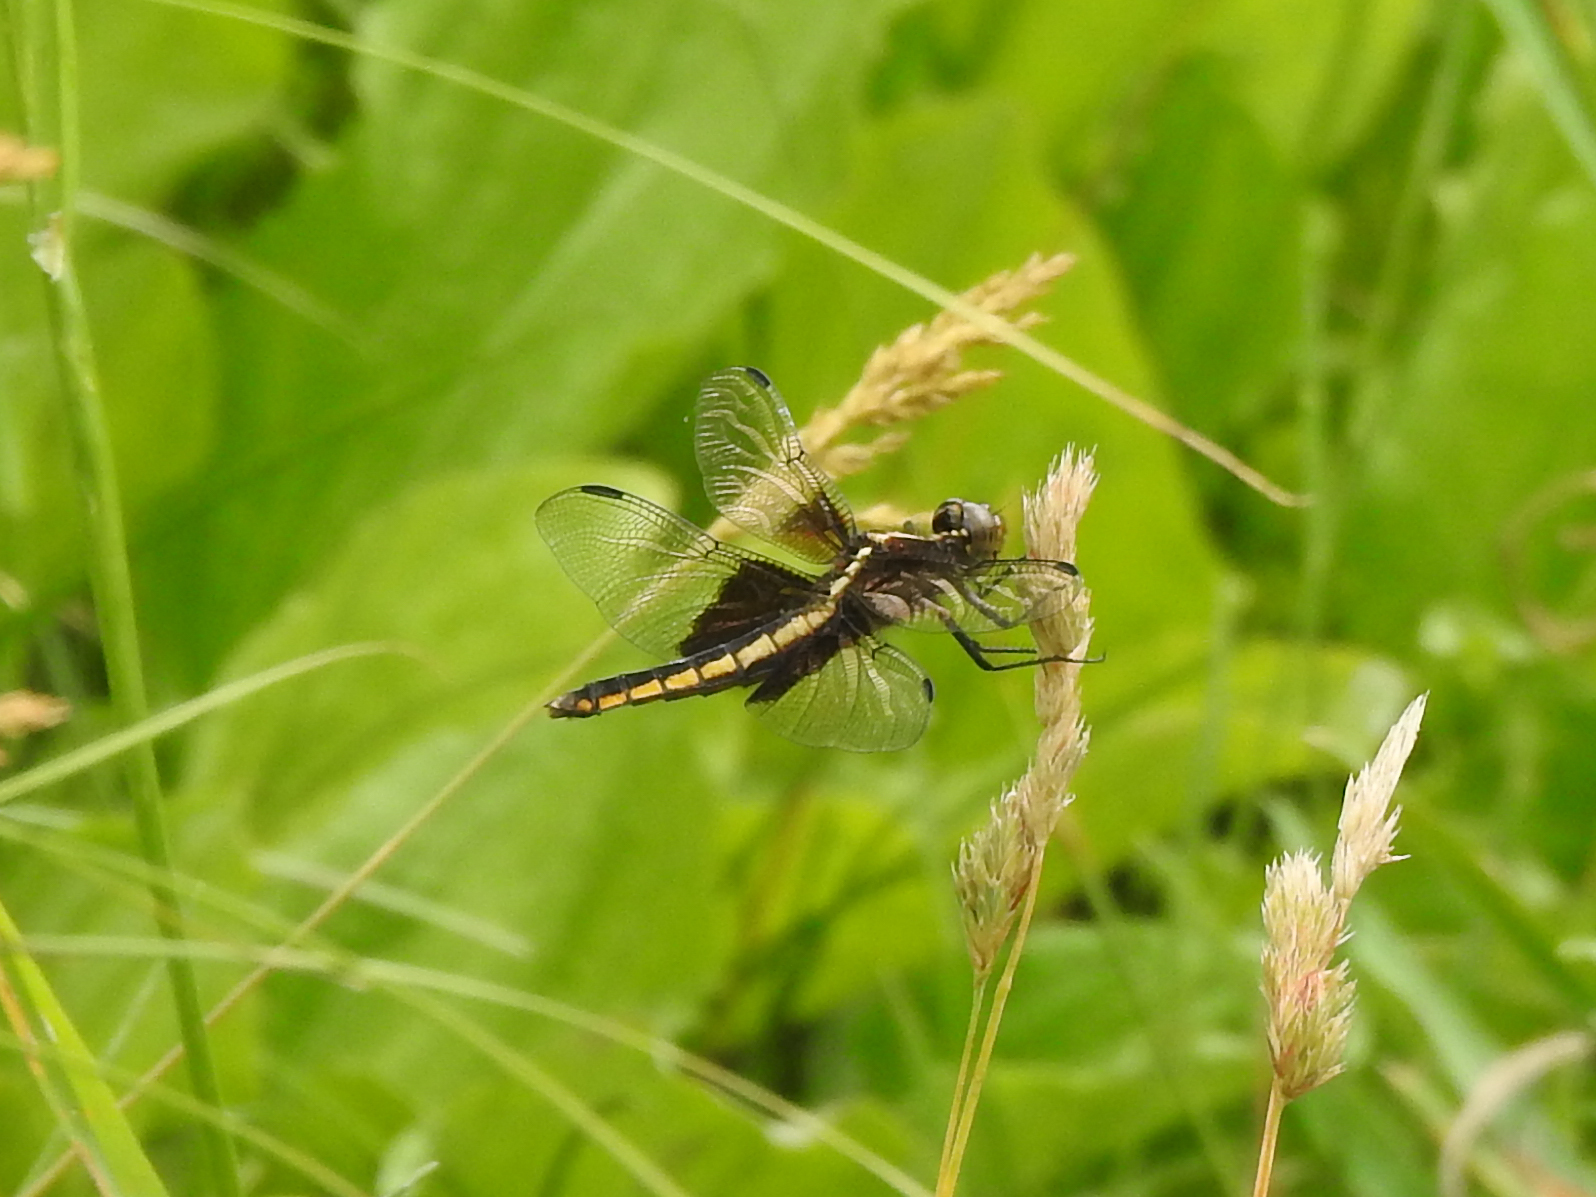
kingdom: Animalia
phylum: Arthropoda
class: Insecta
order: Odonata
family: Libellulidae
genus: Libellula
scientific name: Libellula luctuosa
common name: Widow skimmer
